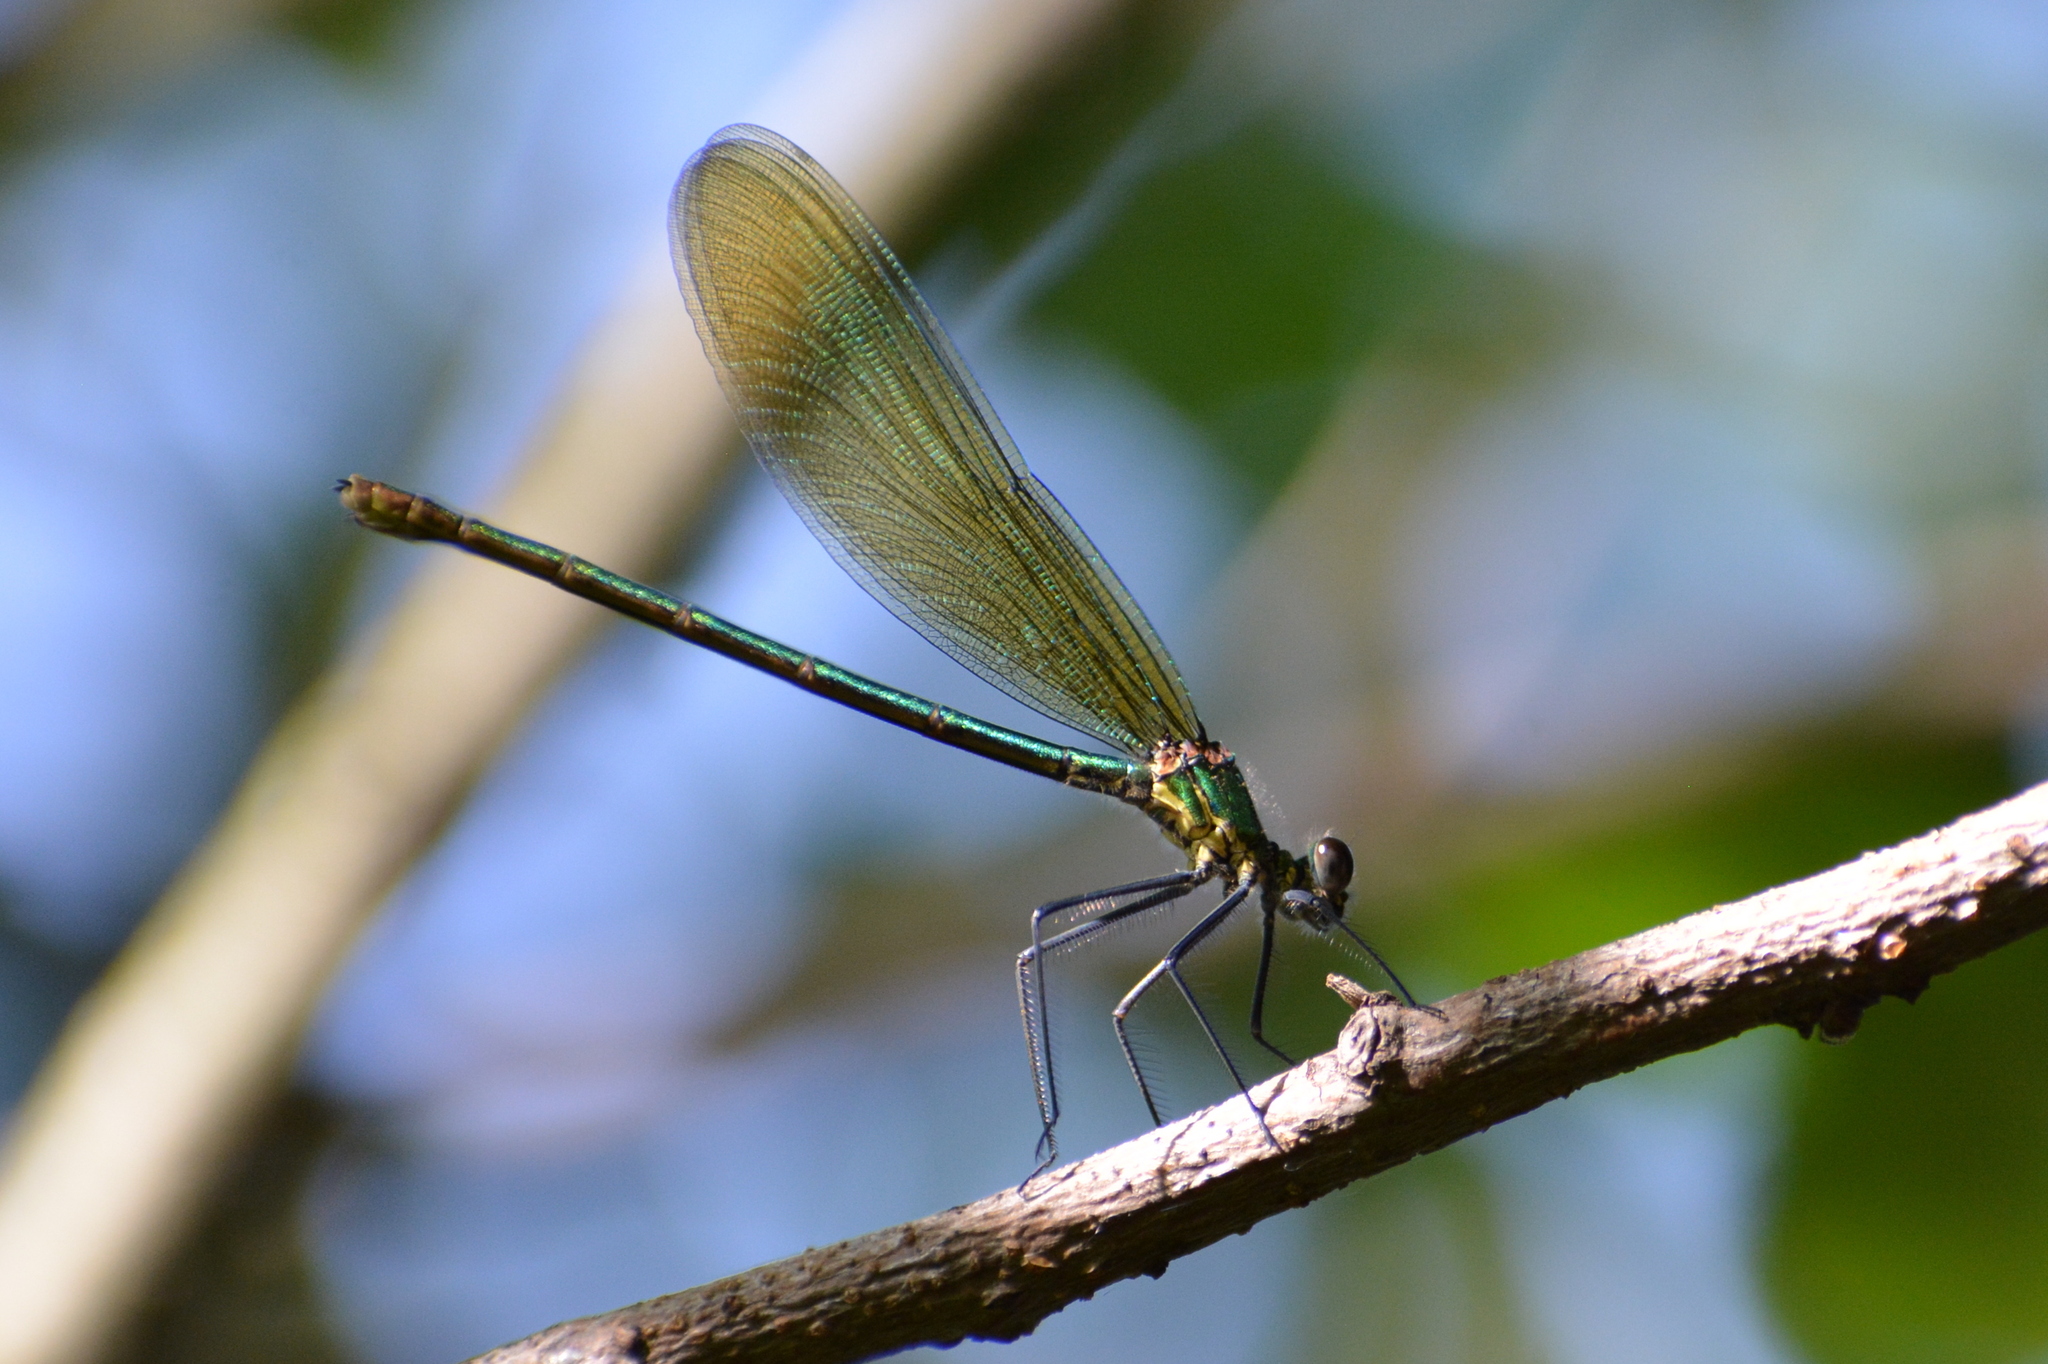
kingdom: Animalia
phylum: Arthropoda
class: Insecta
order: Odonata
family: Calopterygidae
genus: Calopteryx
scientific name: Calopteryx splendens
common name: Banded demoiselle
